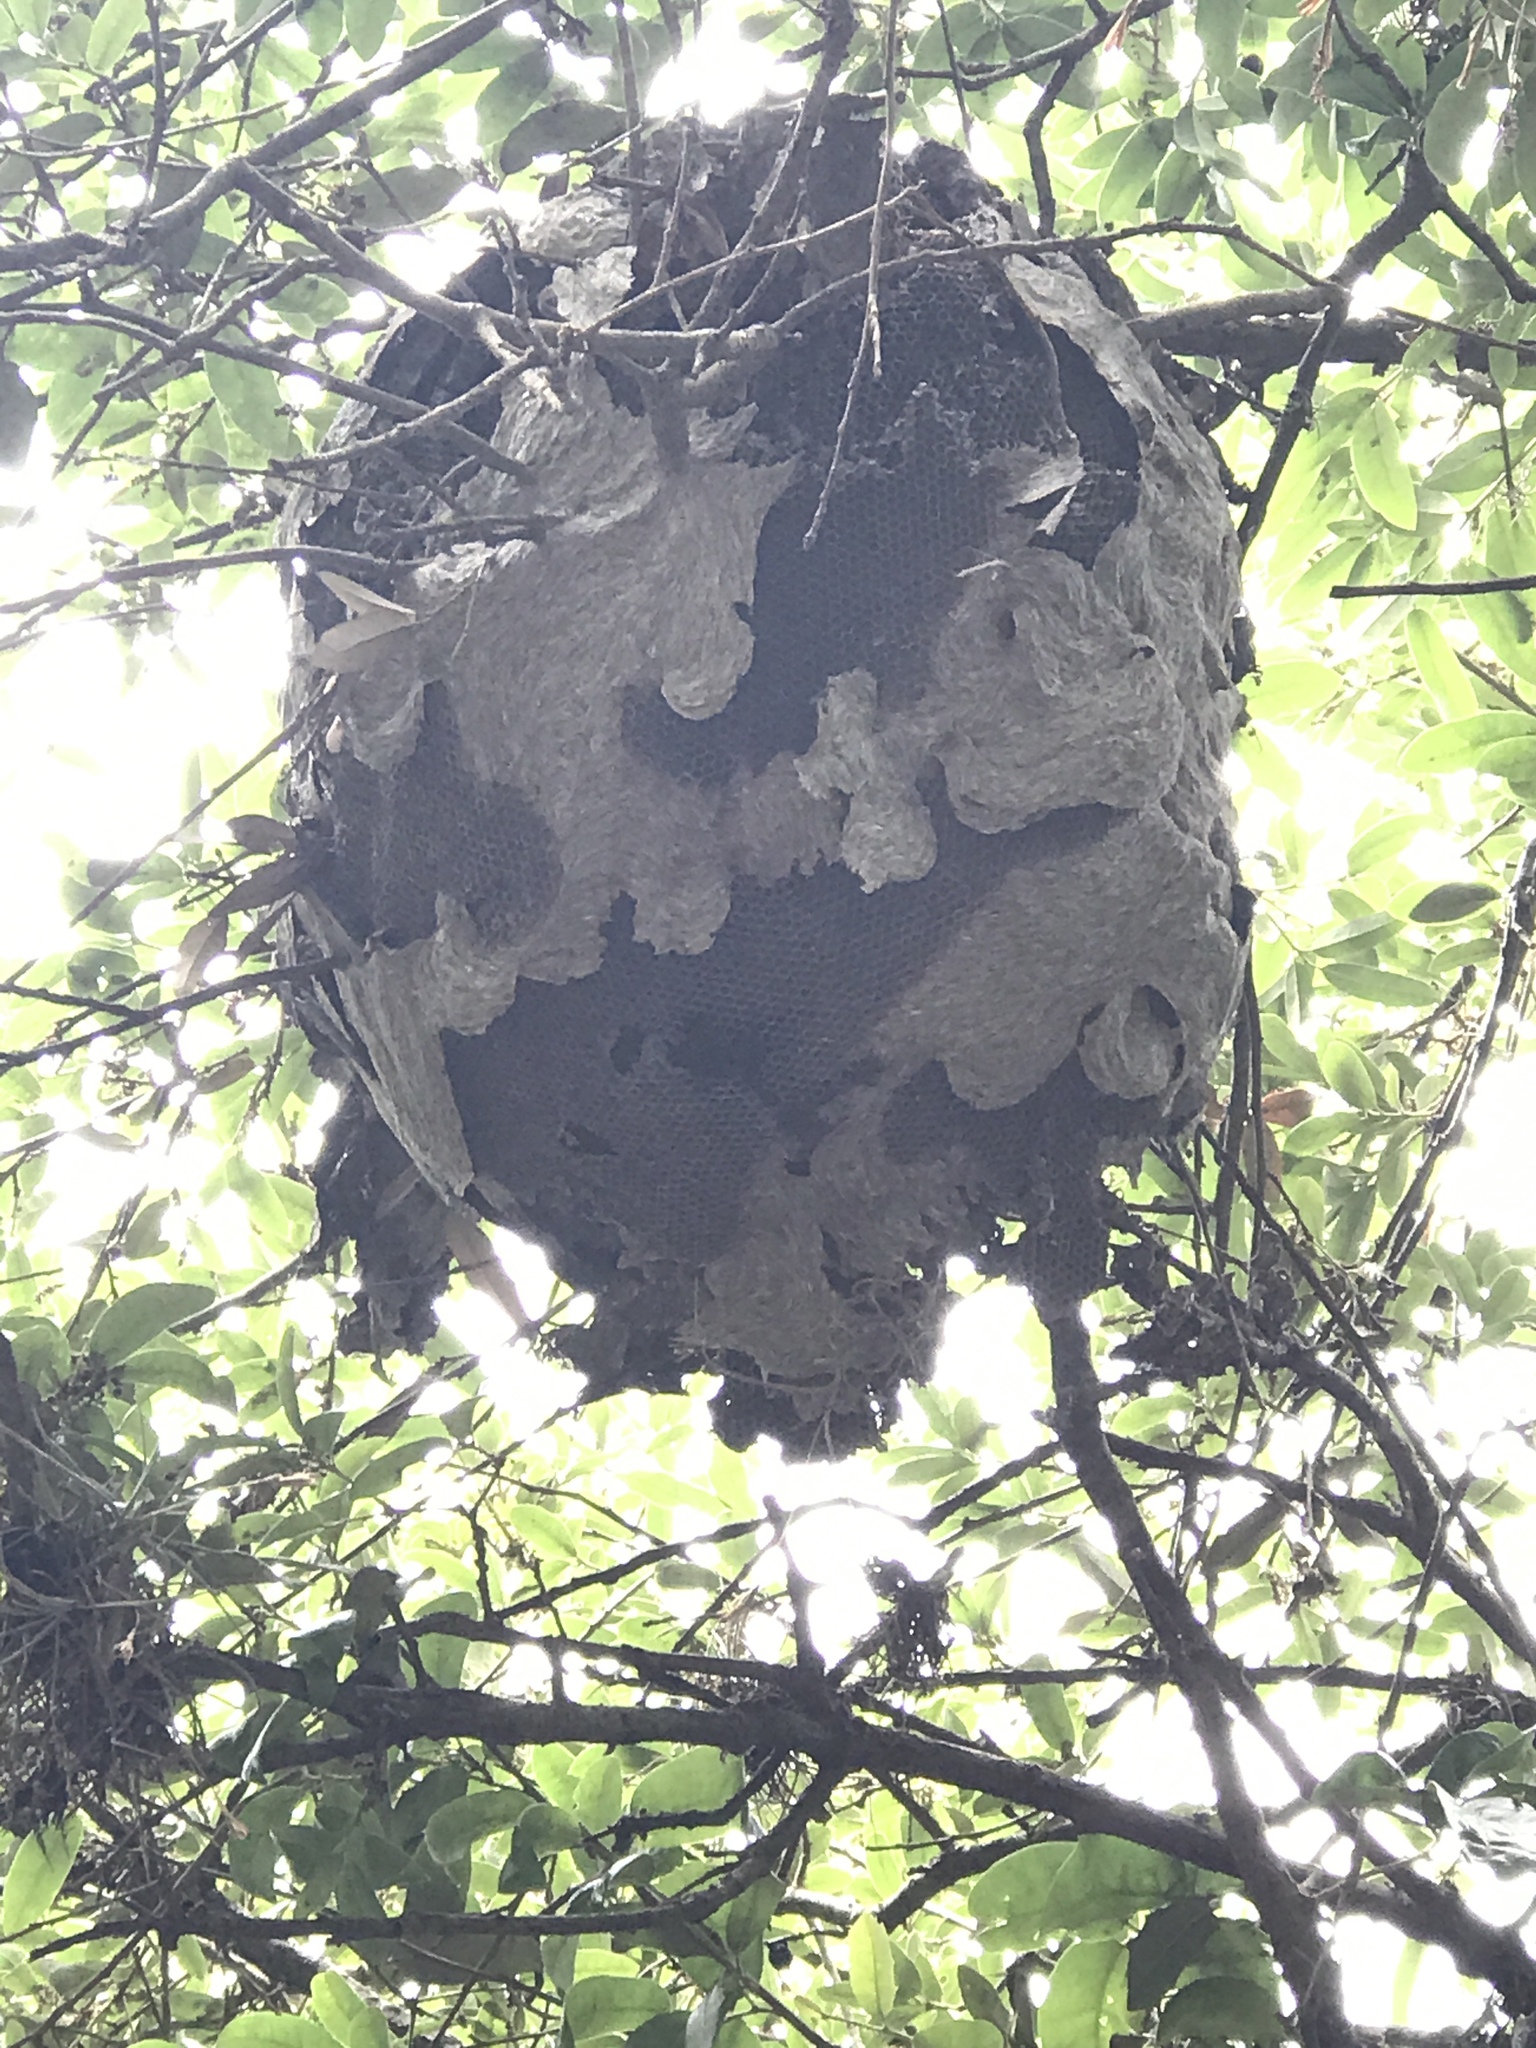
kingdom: Animalia
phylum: Arthropoda
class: Insecta
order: Hymenoptera
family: Vespidae
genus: Brachygastra
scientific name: Brachygastra mellifica
